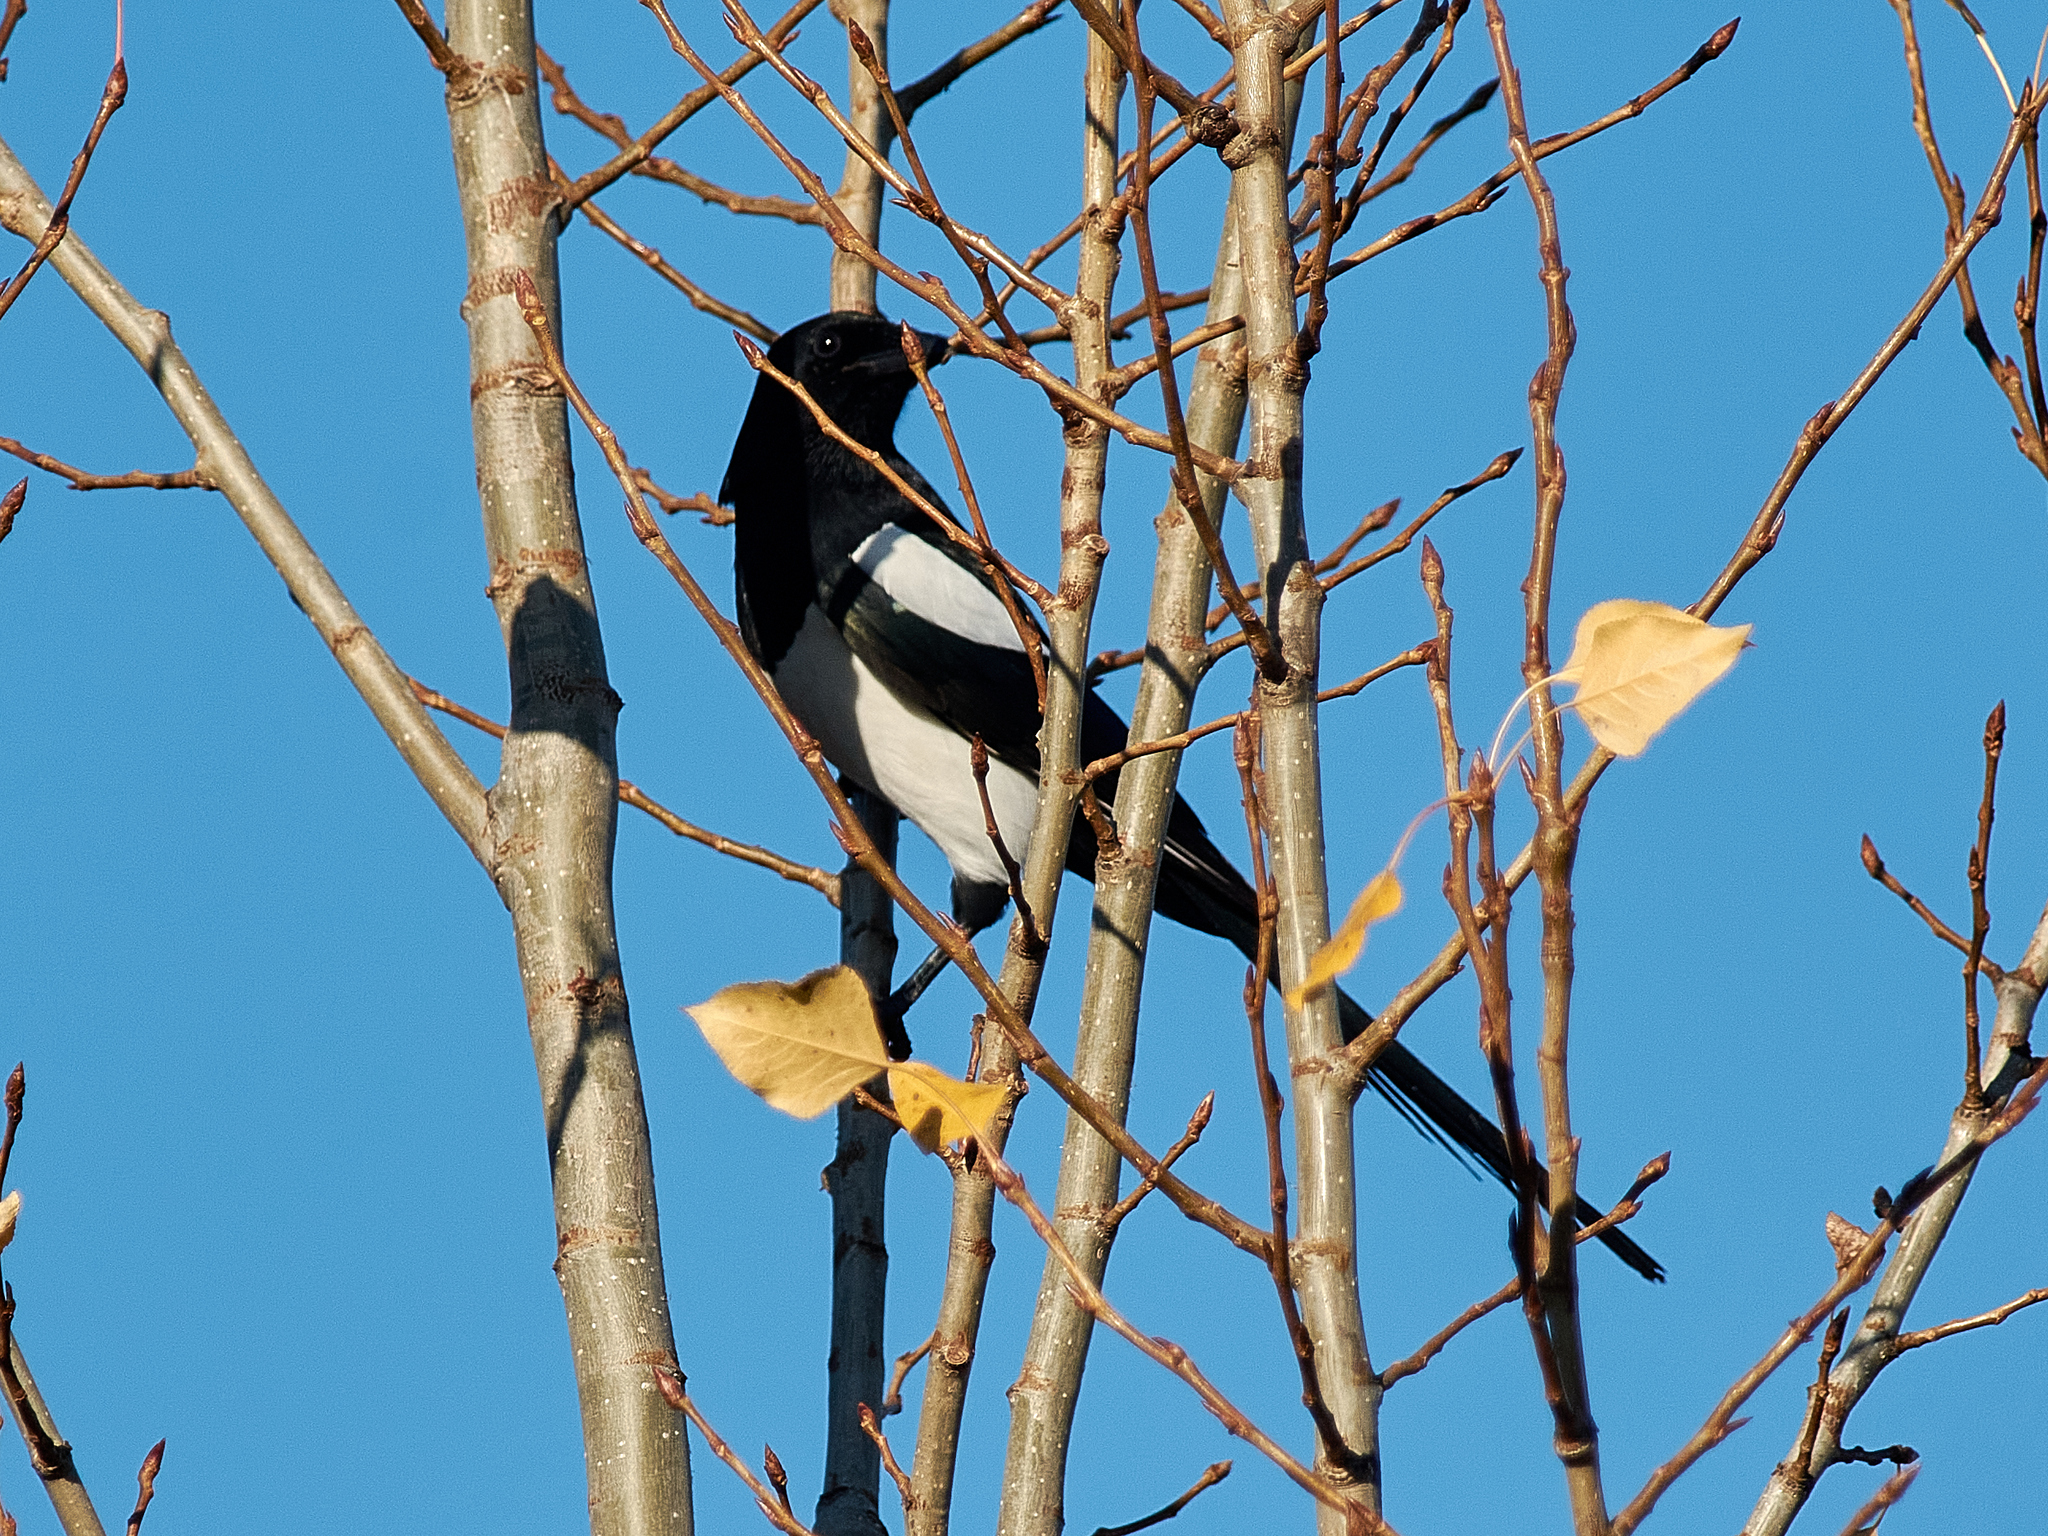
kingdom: Animalia
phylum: Chordata
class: Aves
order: Passeriformes
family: Corvidae
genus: Pica
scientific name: Pica pica
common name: Eurasian magpie
